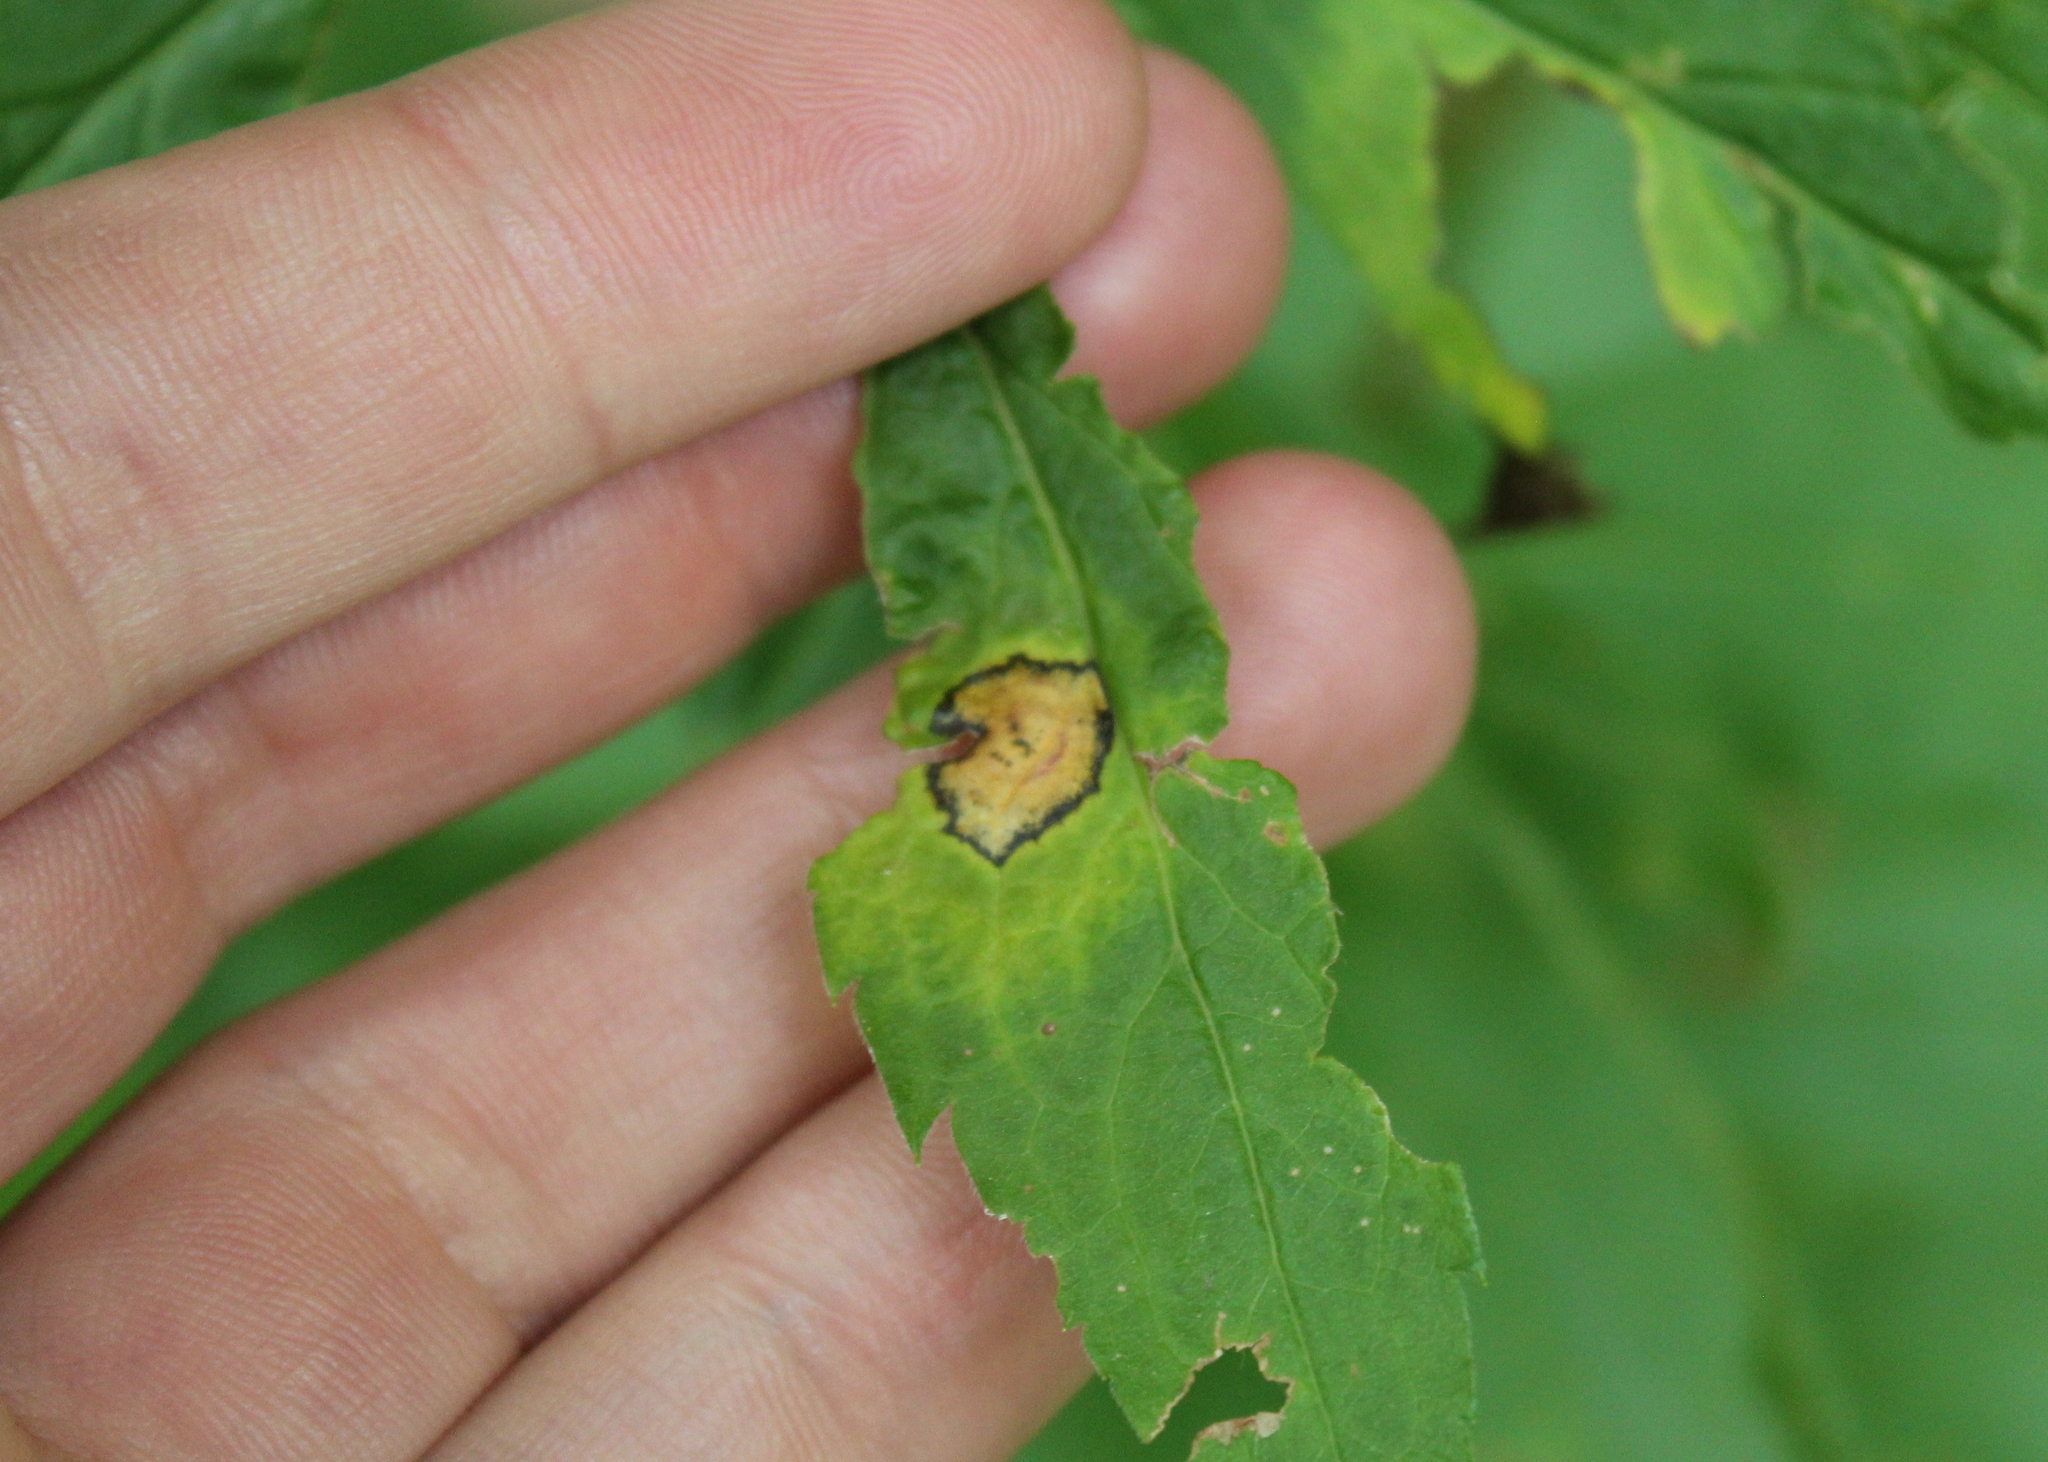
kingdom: Animalia
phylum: Arthropoda
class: Insecta
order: Diptera
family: Cecidomyiidae
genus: Asteromyia
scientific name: Asteromyia carbonifera
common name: Carbonifera goldenrod gall midge
